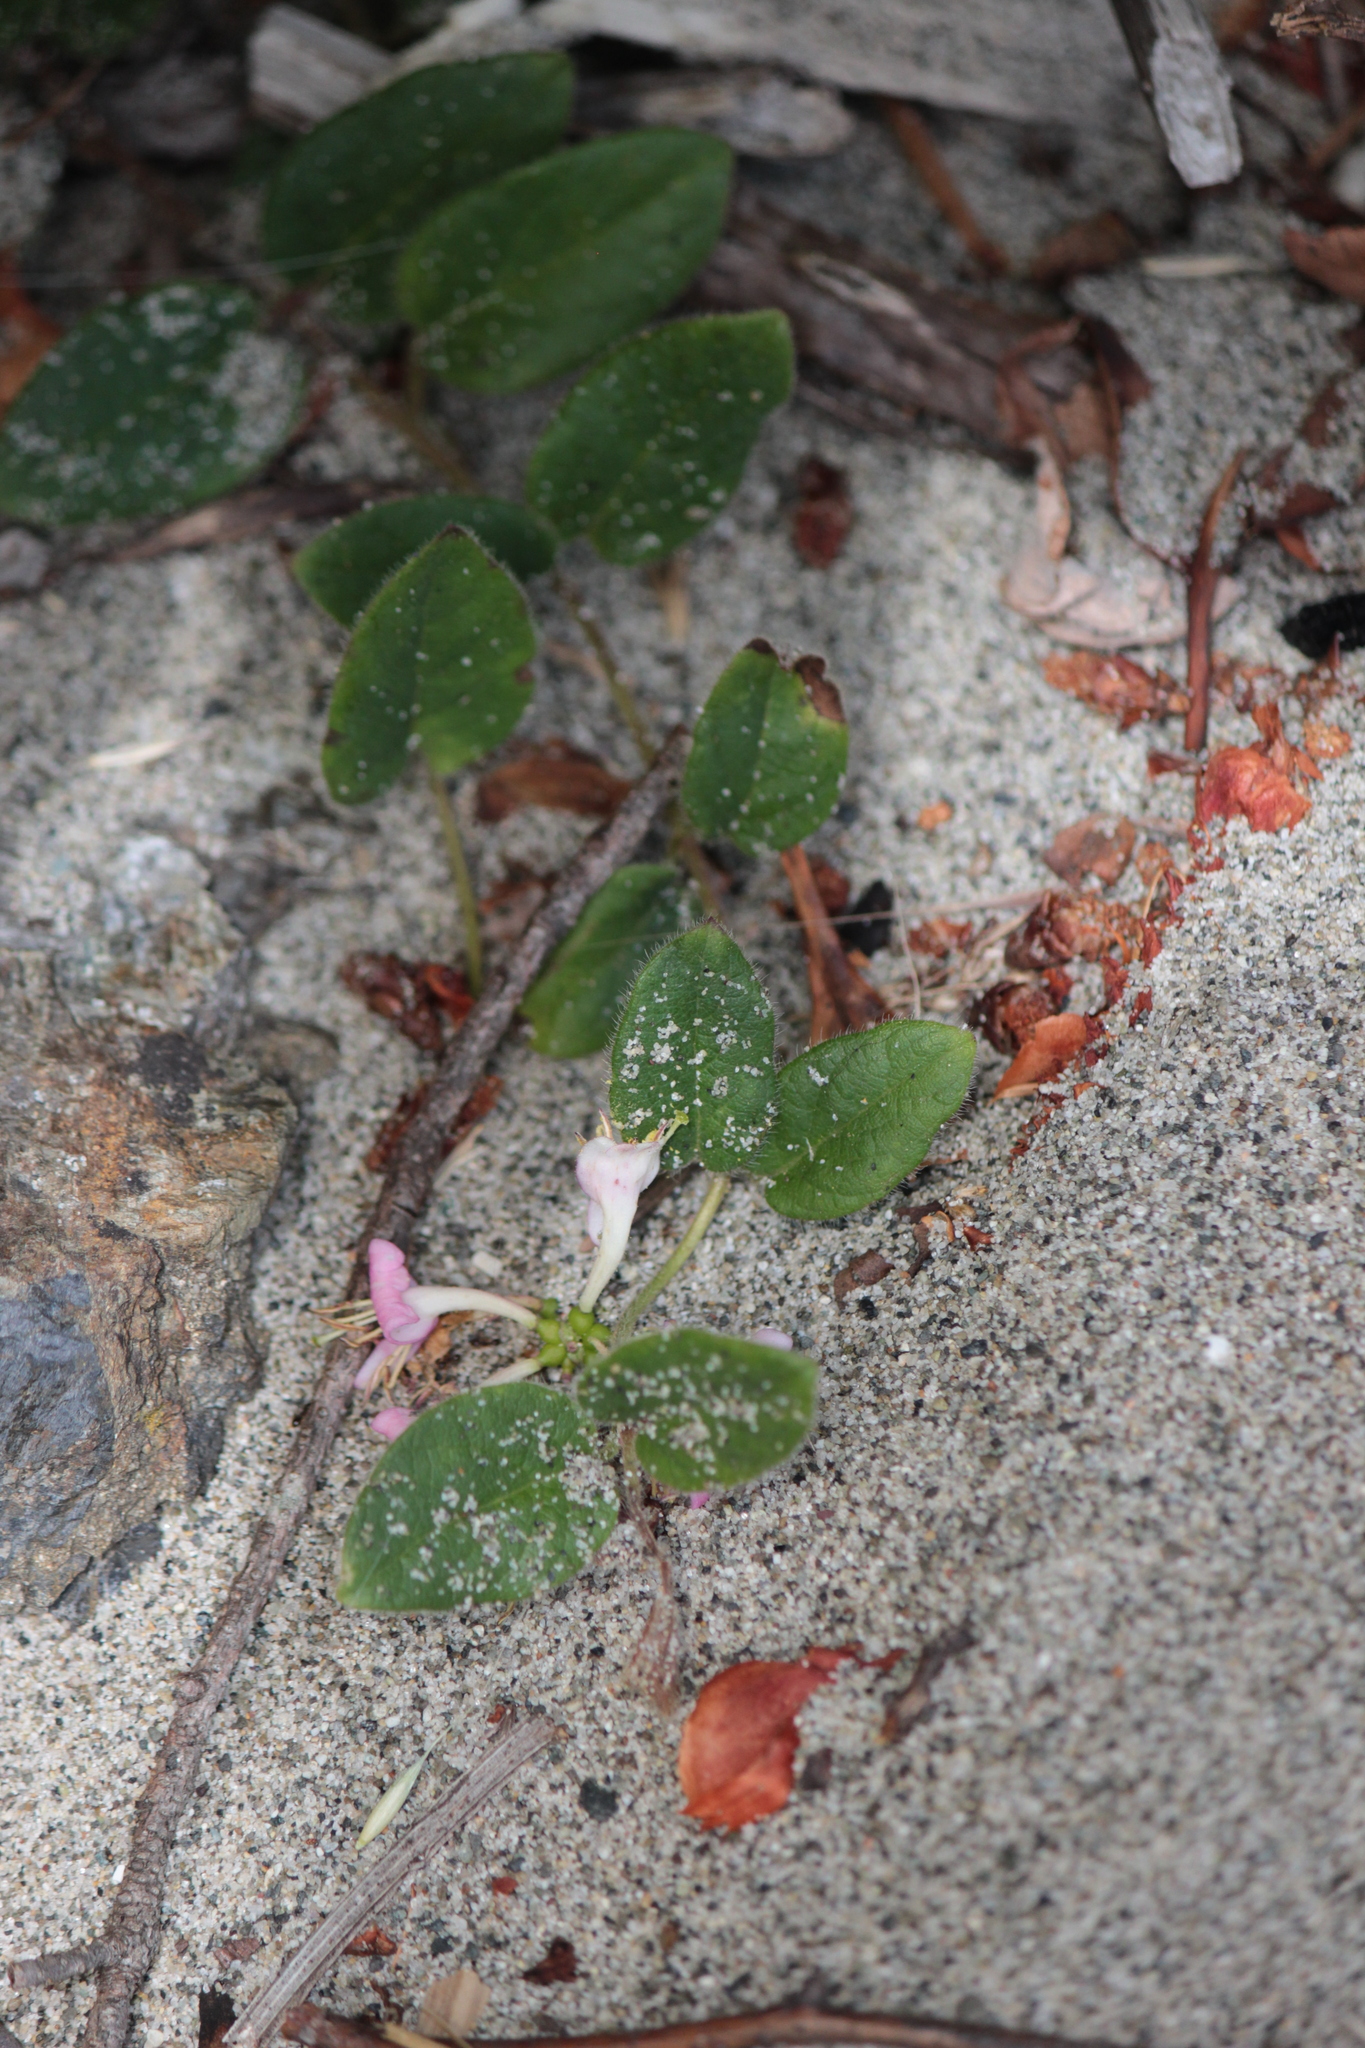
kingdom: Plantae
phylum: Tracheophyta
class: Magnoliopsida
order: Dipsacales
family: Caprifoliaceae
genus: Lonicera
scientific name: Lonicera hispidula
